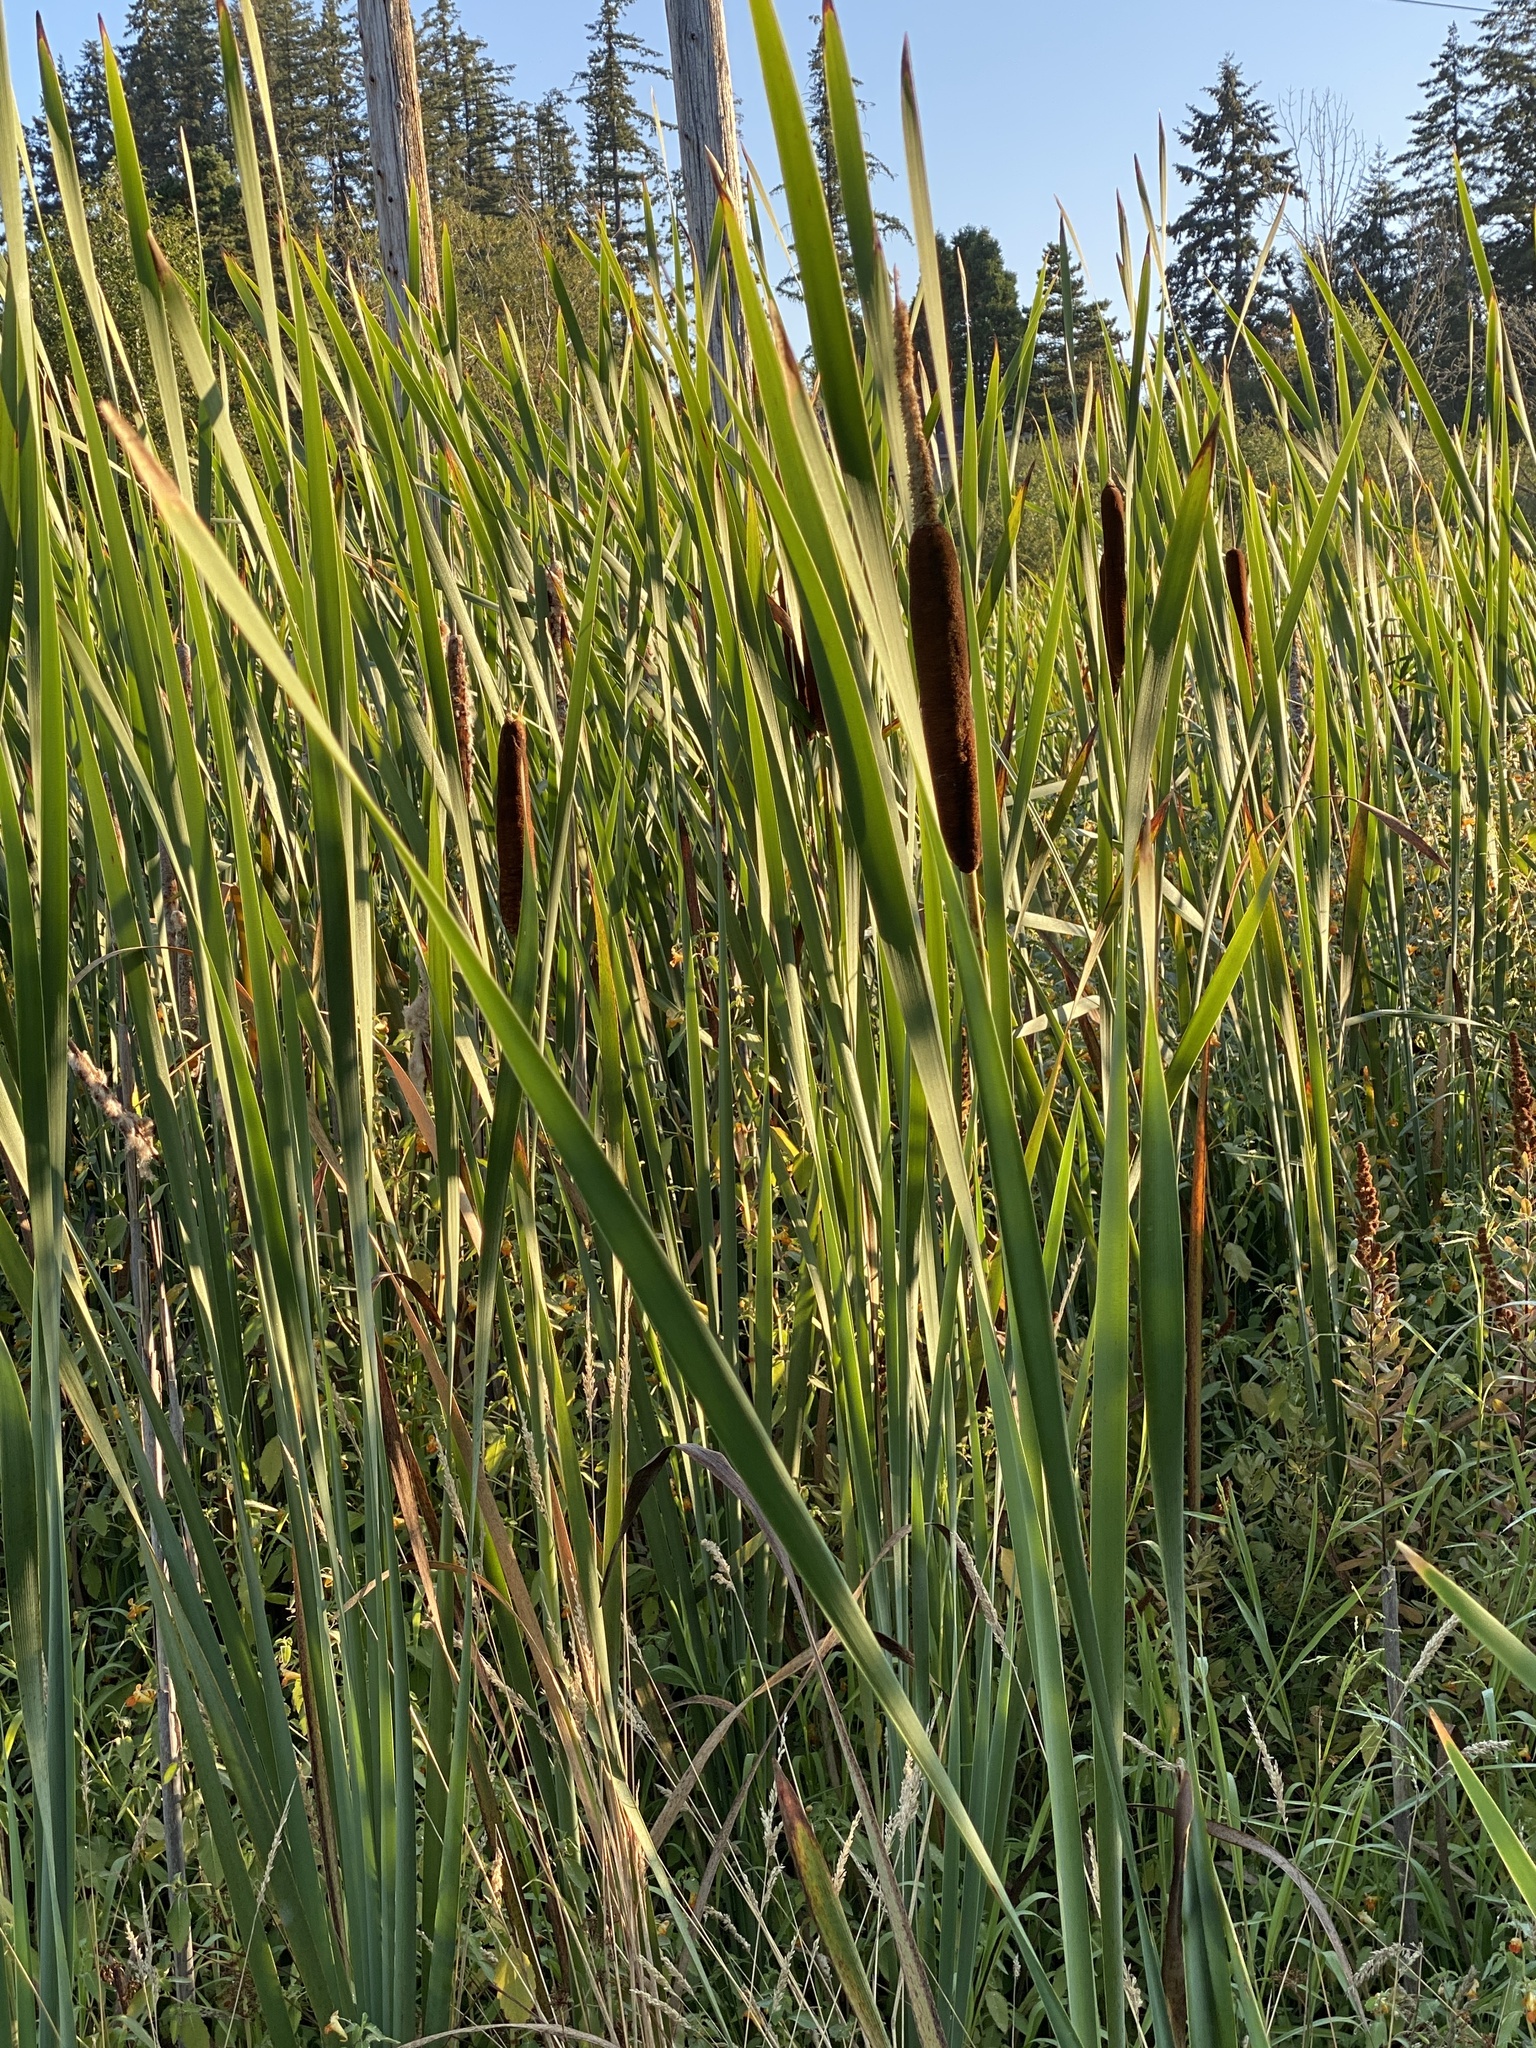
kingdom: Plantae
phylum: Tracheophyta
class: Liliopsida
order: Poales
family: Typhaceae
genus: Typha
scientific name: Typha latifolia
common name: Broadleaf cattail
